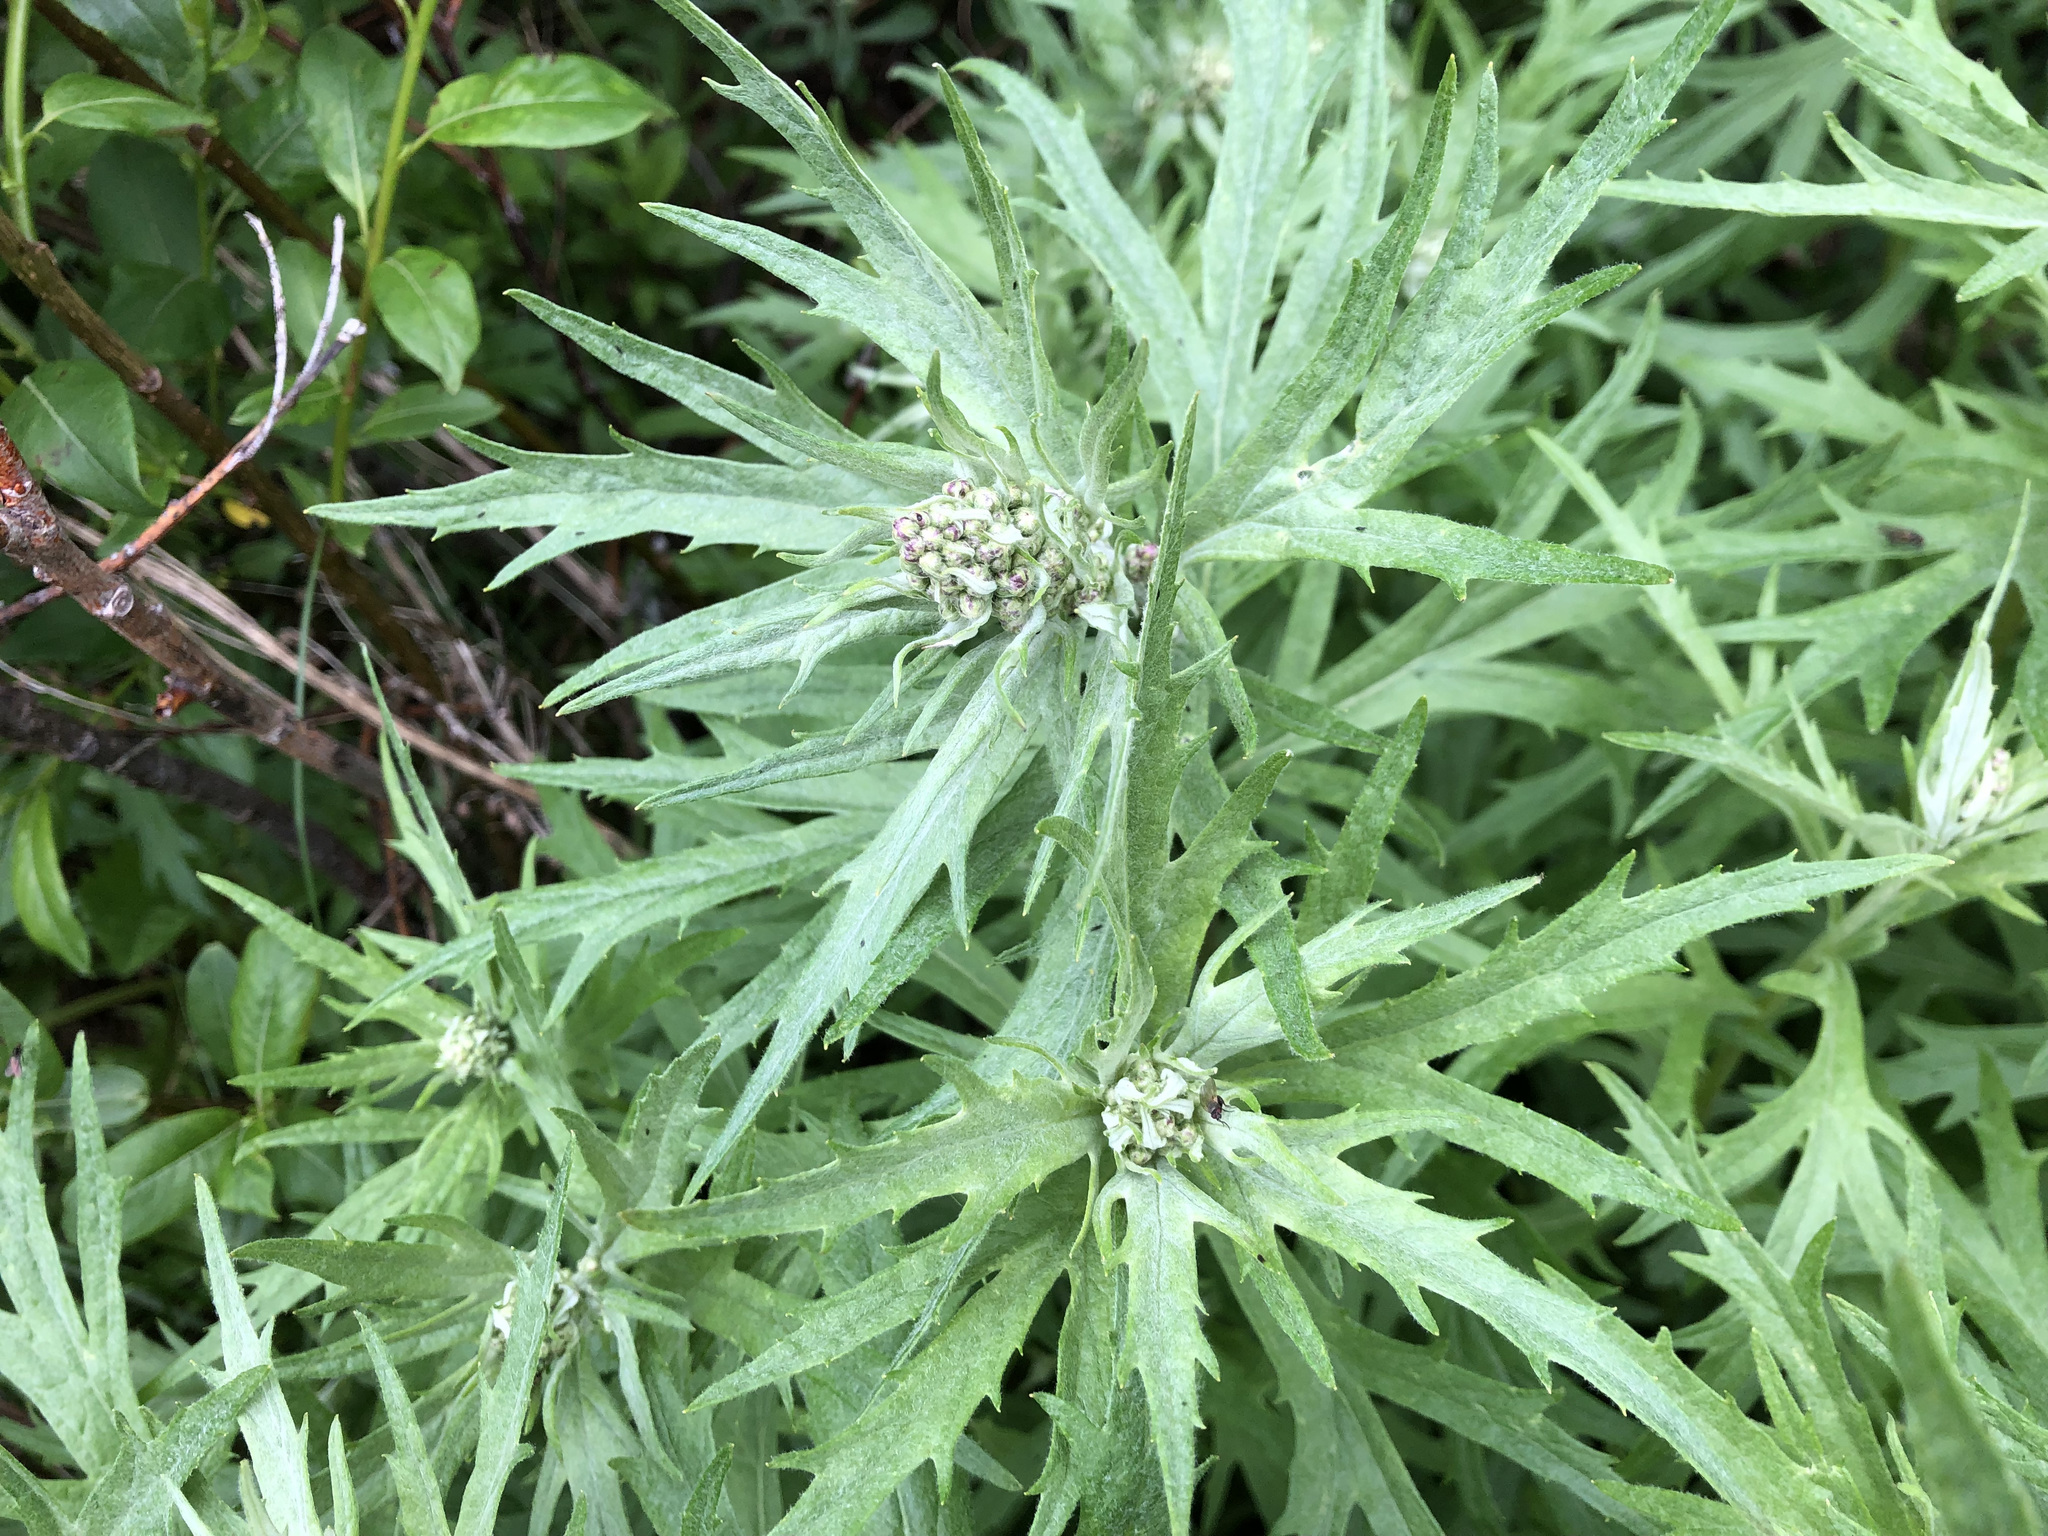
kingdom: Plantae
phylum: Tracheophyta
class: Magnoliopsida
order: Asterales
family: Asteraceae
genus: Artemisia
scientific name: Artemisia tilesii
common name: Aleutian mugwort
